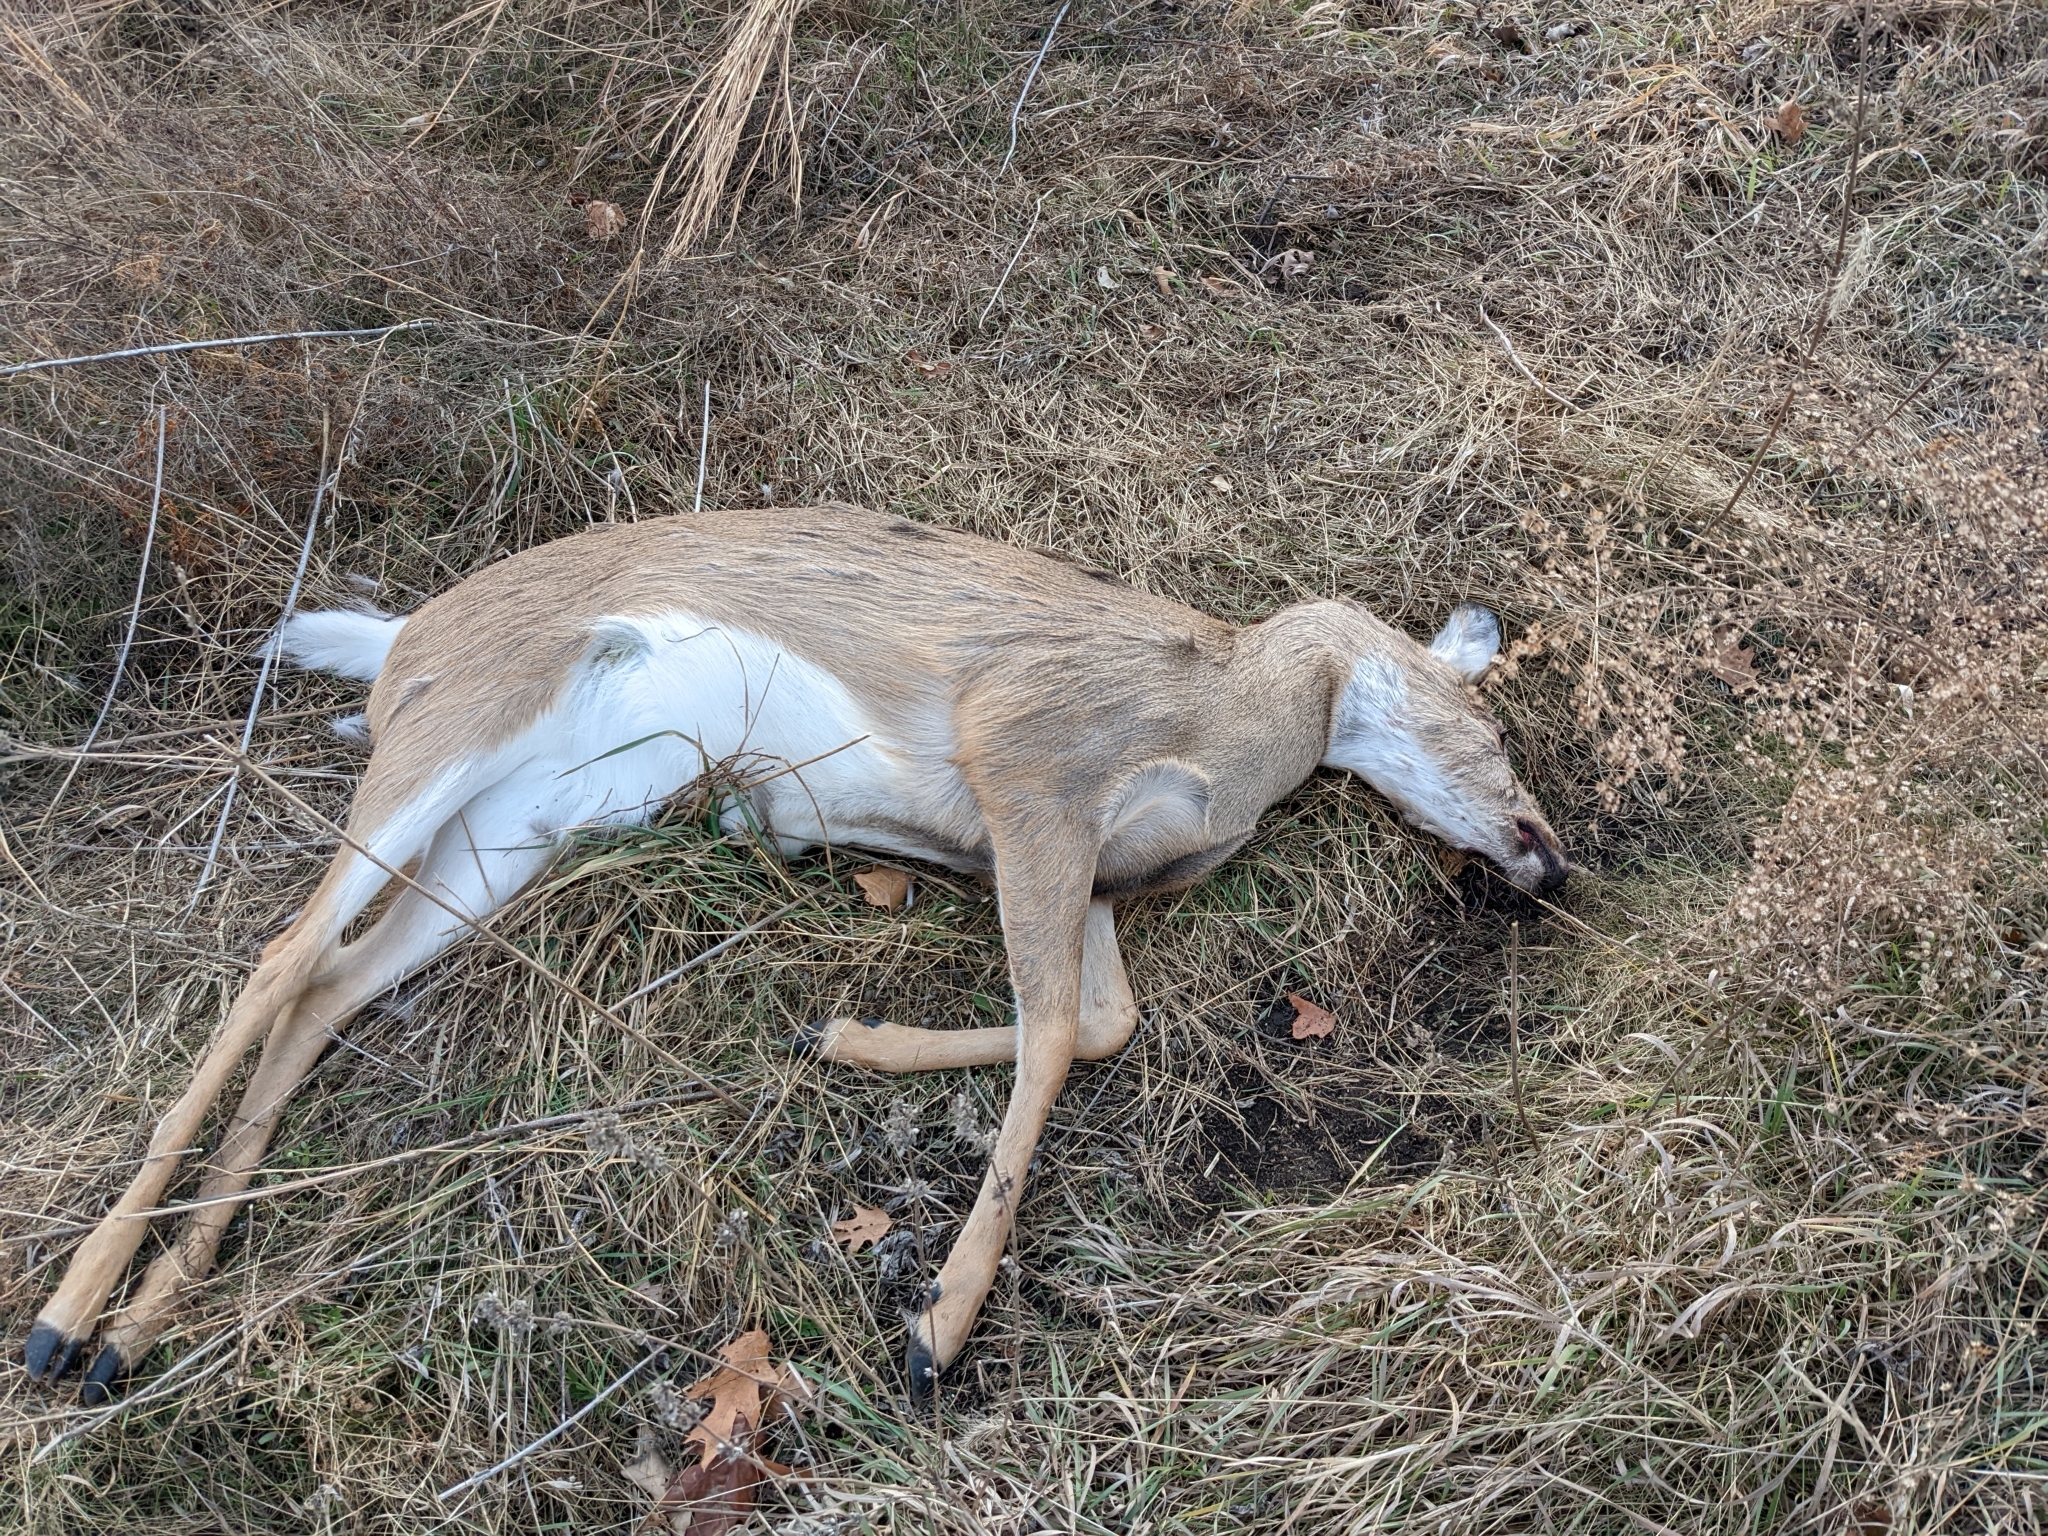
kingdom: Animalia
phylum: Chordata
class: Mammalia
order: Artiodactyla
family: Cervidae
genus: Odocoileus
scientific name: Odocoileus virginianus
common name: White-tailed deer
